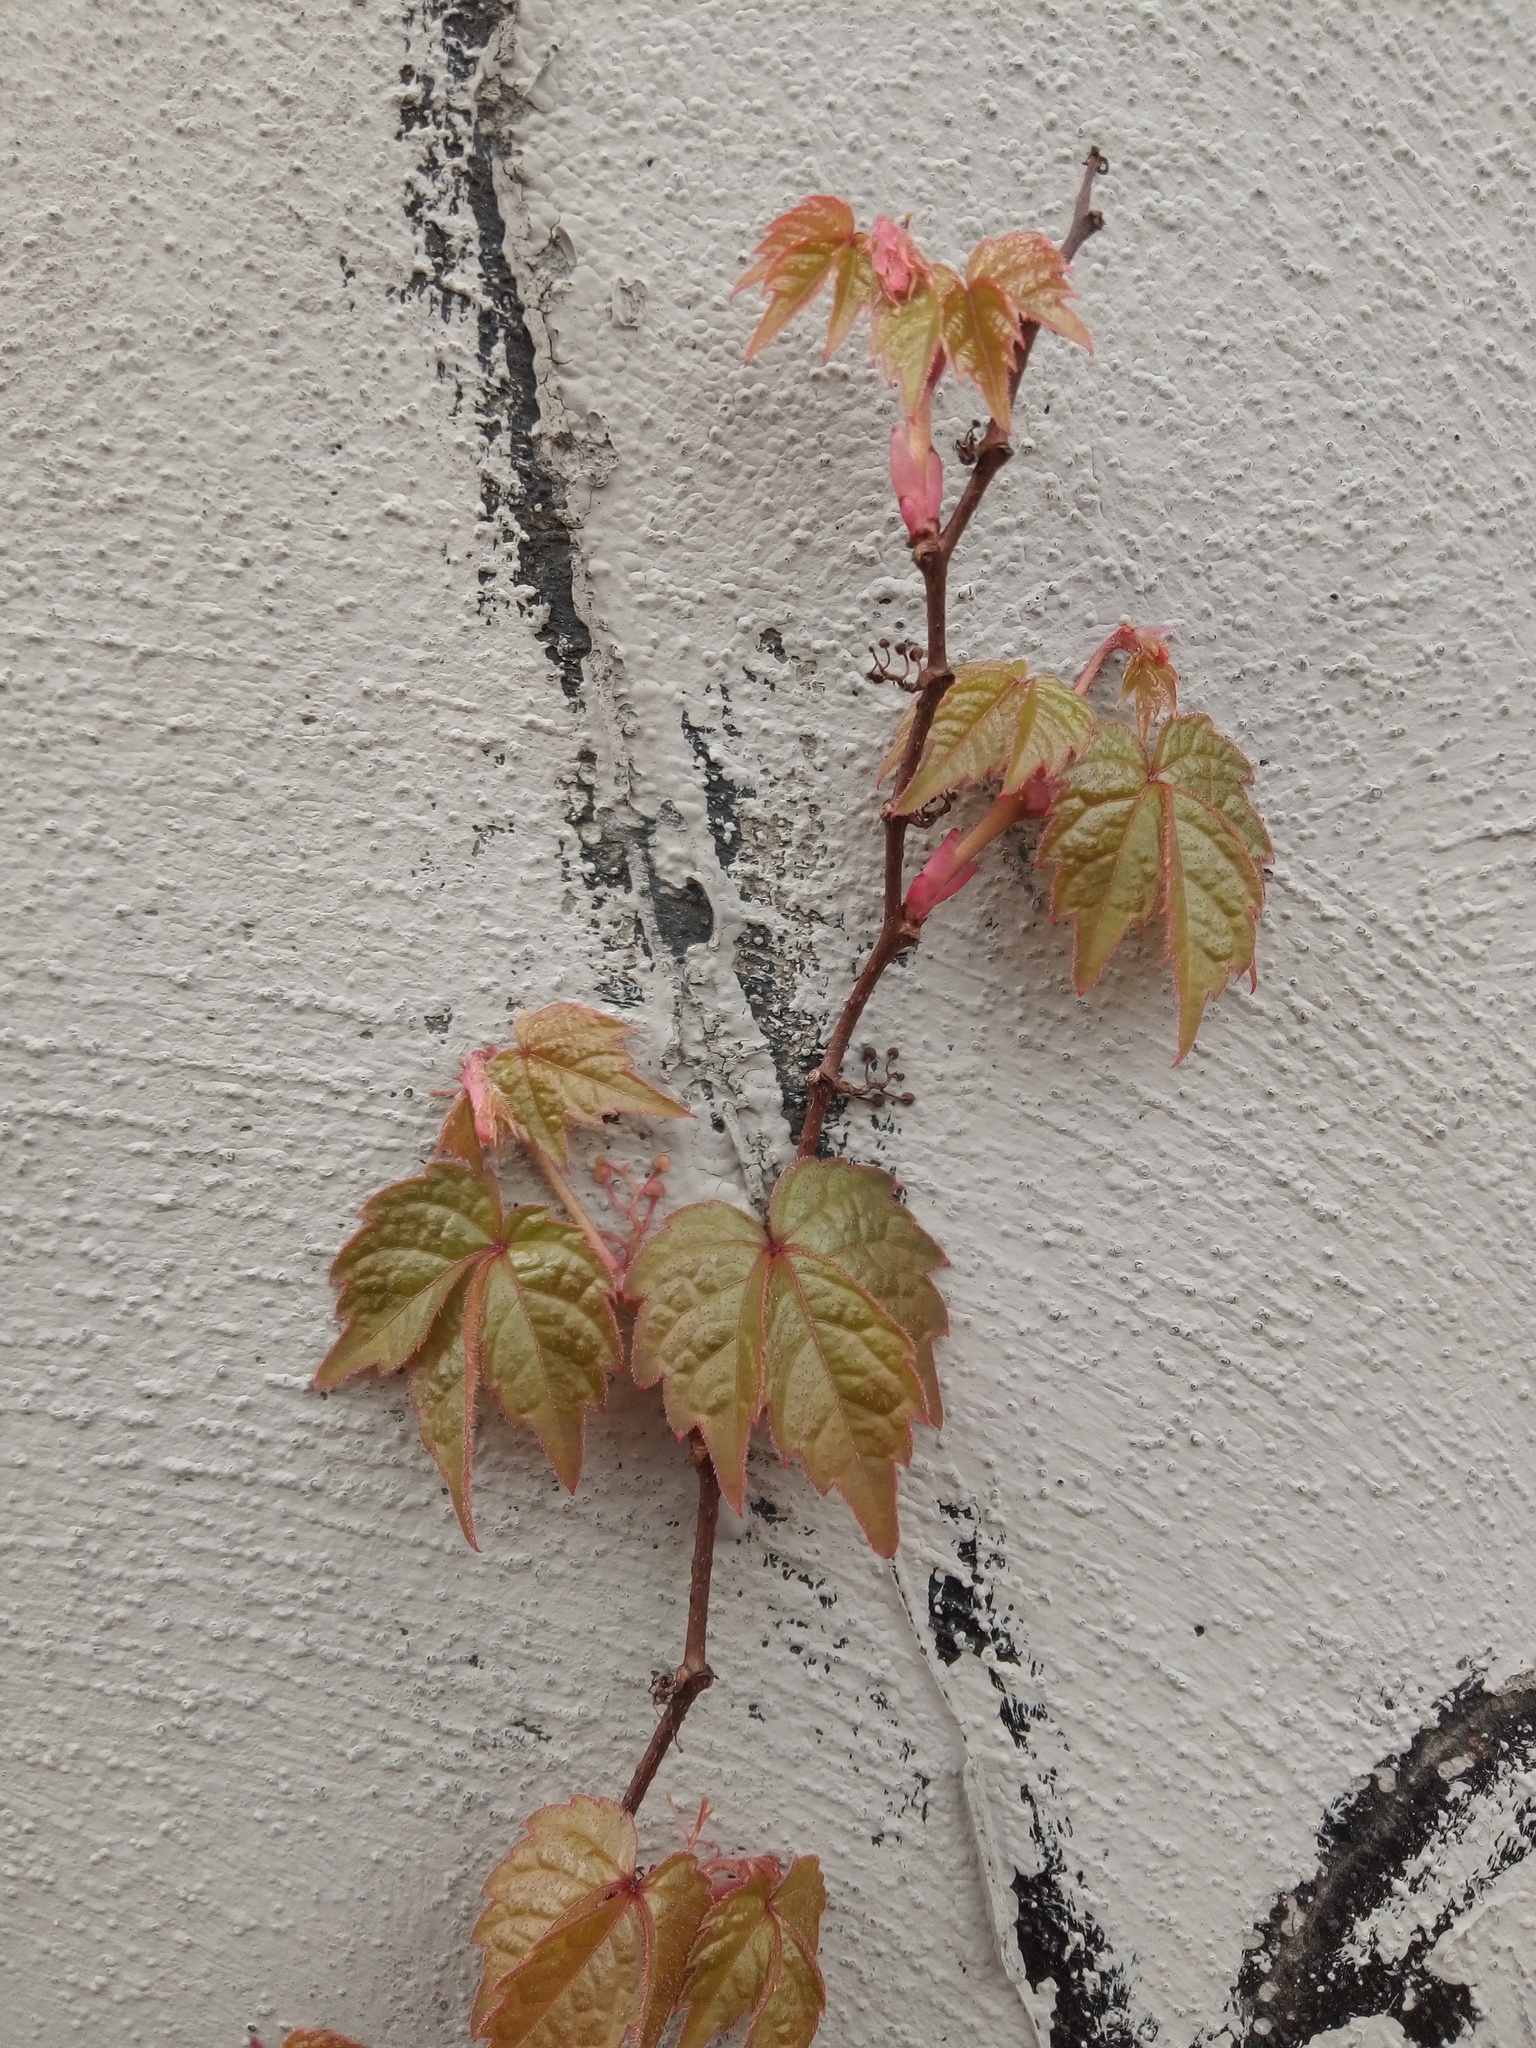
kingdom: Plantae
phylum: Tracheophyta
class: Magnoliopsida
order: Vitales
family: Vitaceae
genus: Parthenocissus
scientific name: Parthenocissus tricuspidata
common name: Boston ivy
